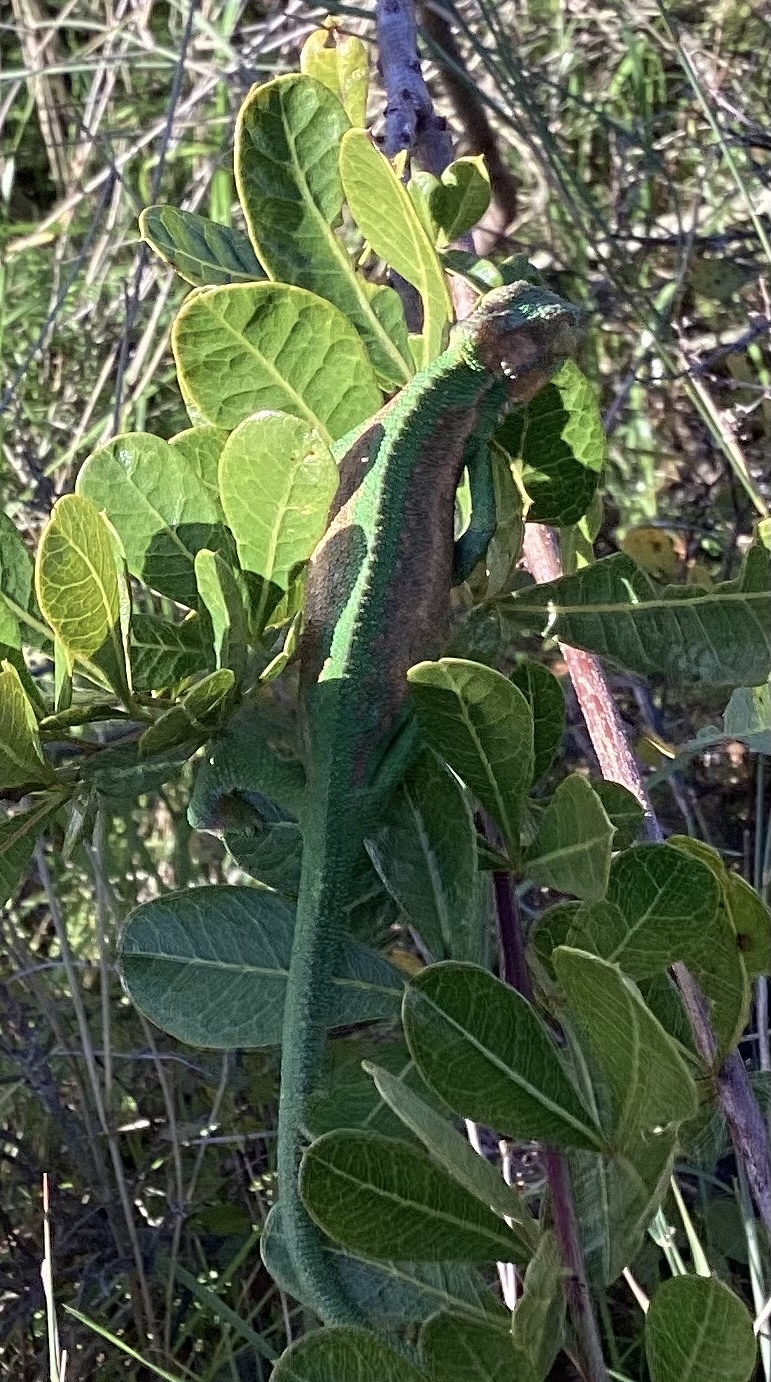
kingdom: Animalia
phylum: Chordata
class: Squamata
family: Chamaeleonidae
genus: Bradypodion
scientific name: Bradypodion pumilum
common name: Cape dwarf chameleon
